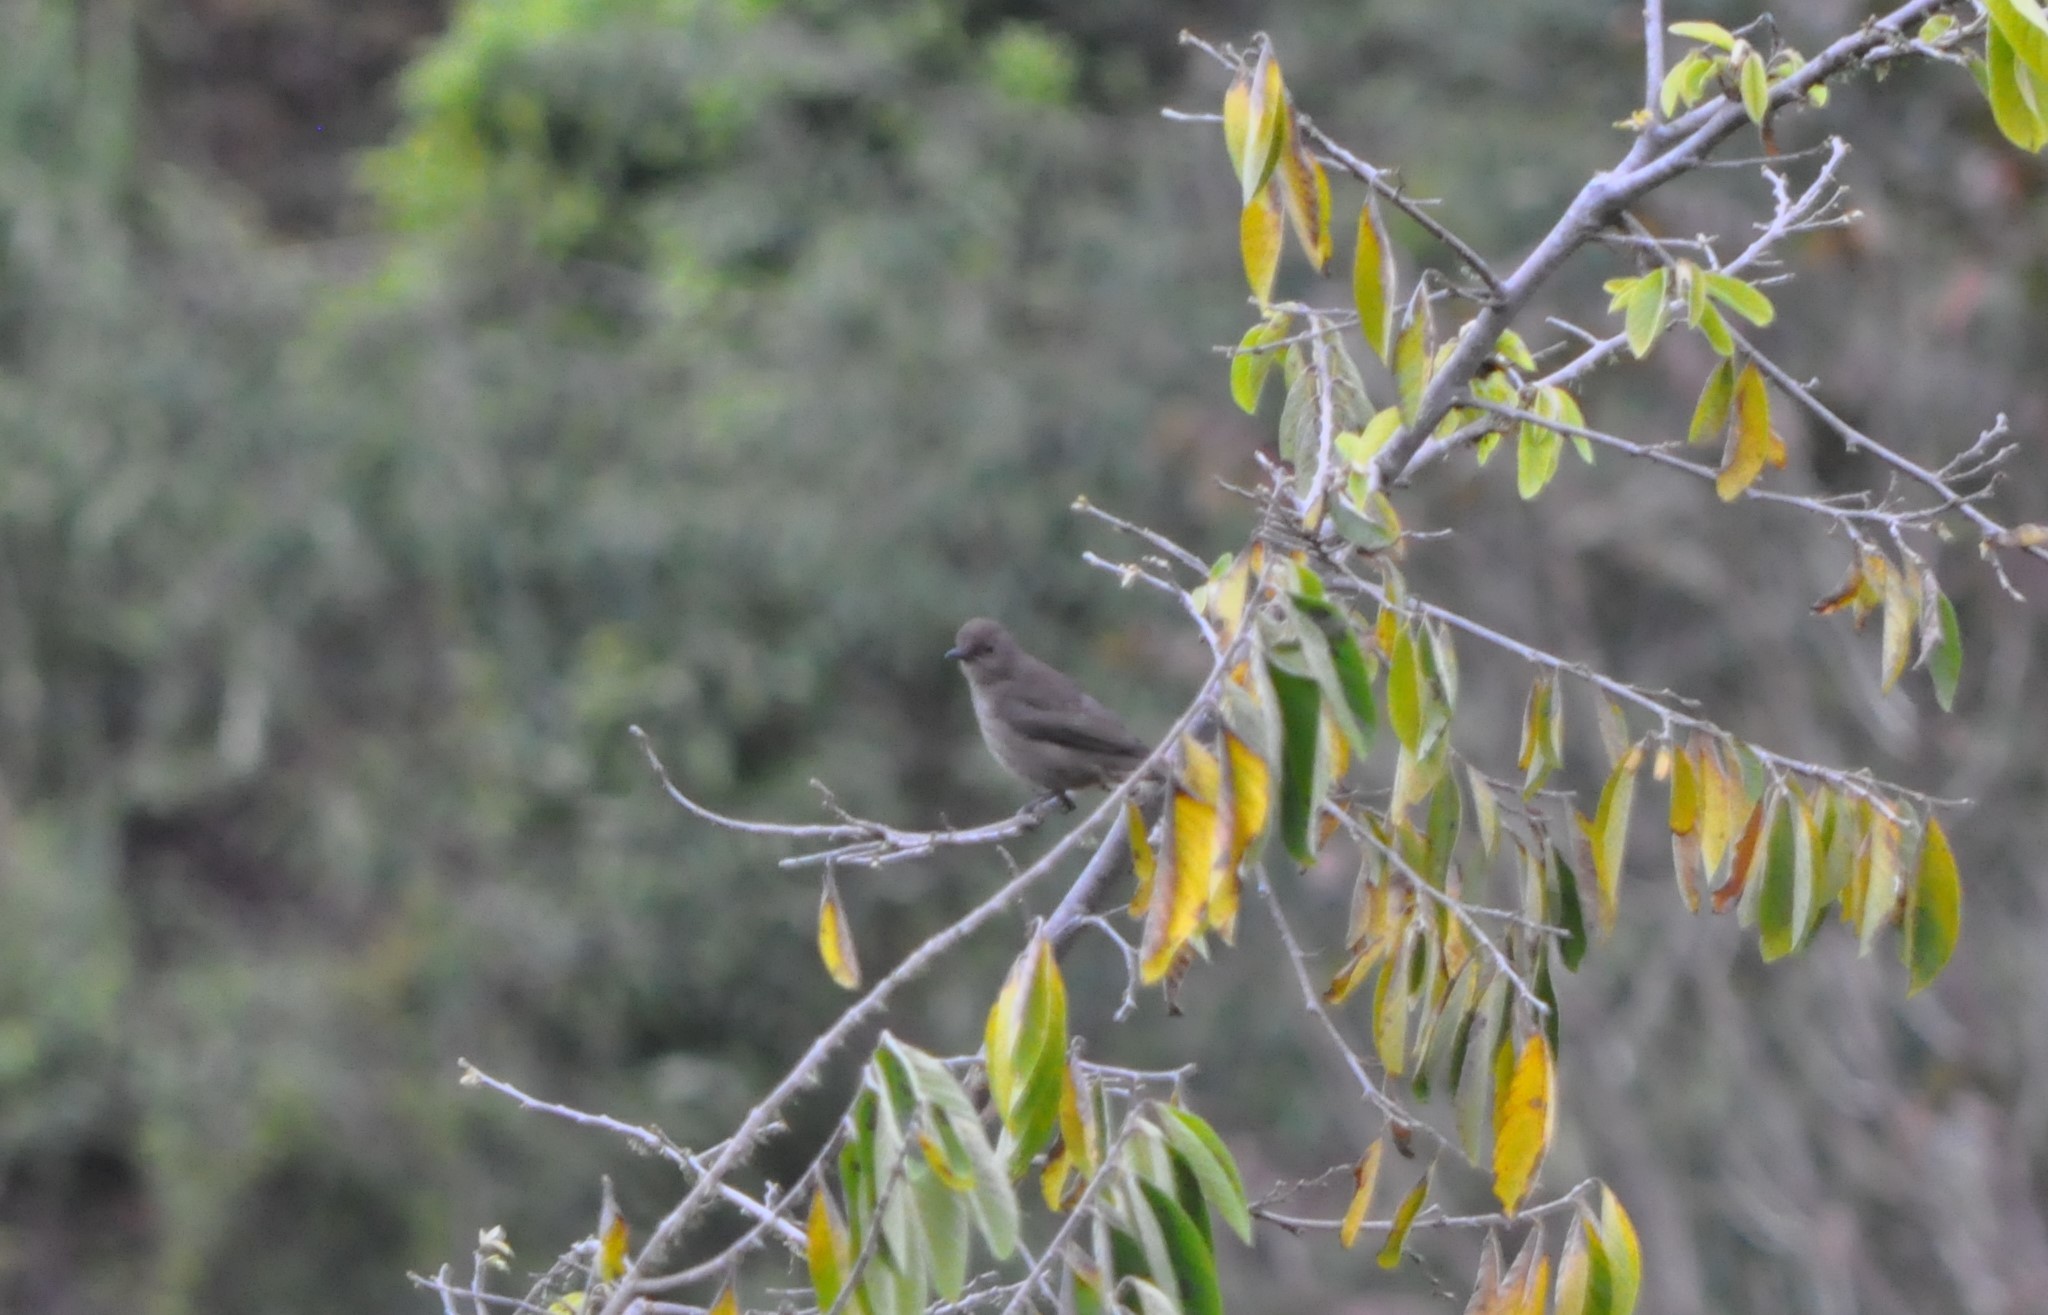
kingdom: Animalia
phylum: Chordata
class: Aves
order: Passeriformes
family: Turdidae
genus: Turdus
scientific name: Turdus plebejus
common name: Mountain thrush
